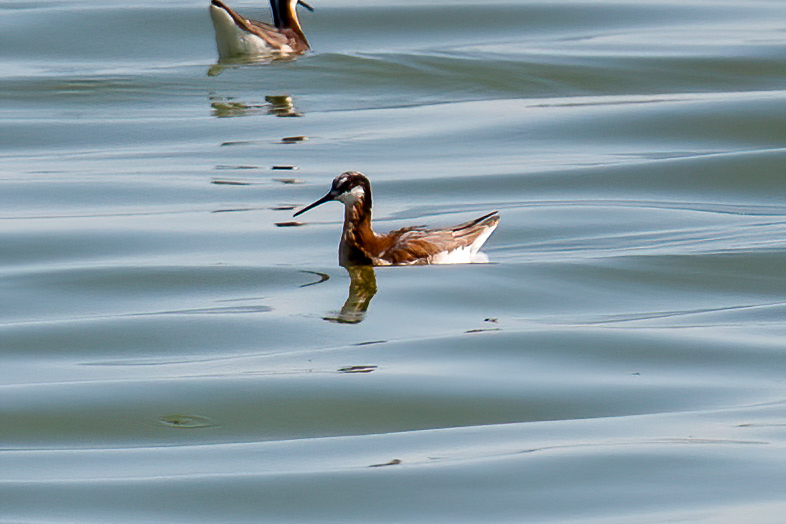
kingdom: Animalia
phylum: Chordata
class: Aves
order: Charadriiformes
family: Scolopacidae
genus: Phalaropus
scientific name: Phalaropus tricolor
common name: Wilson's phalarope
